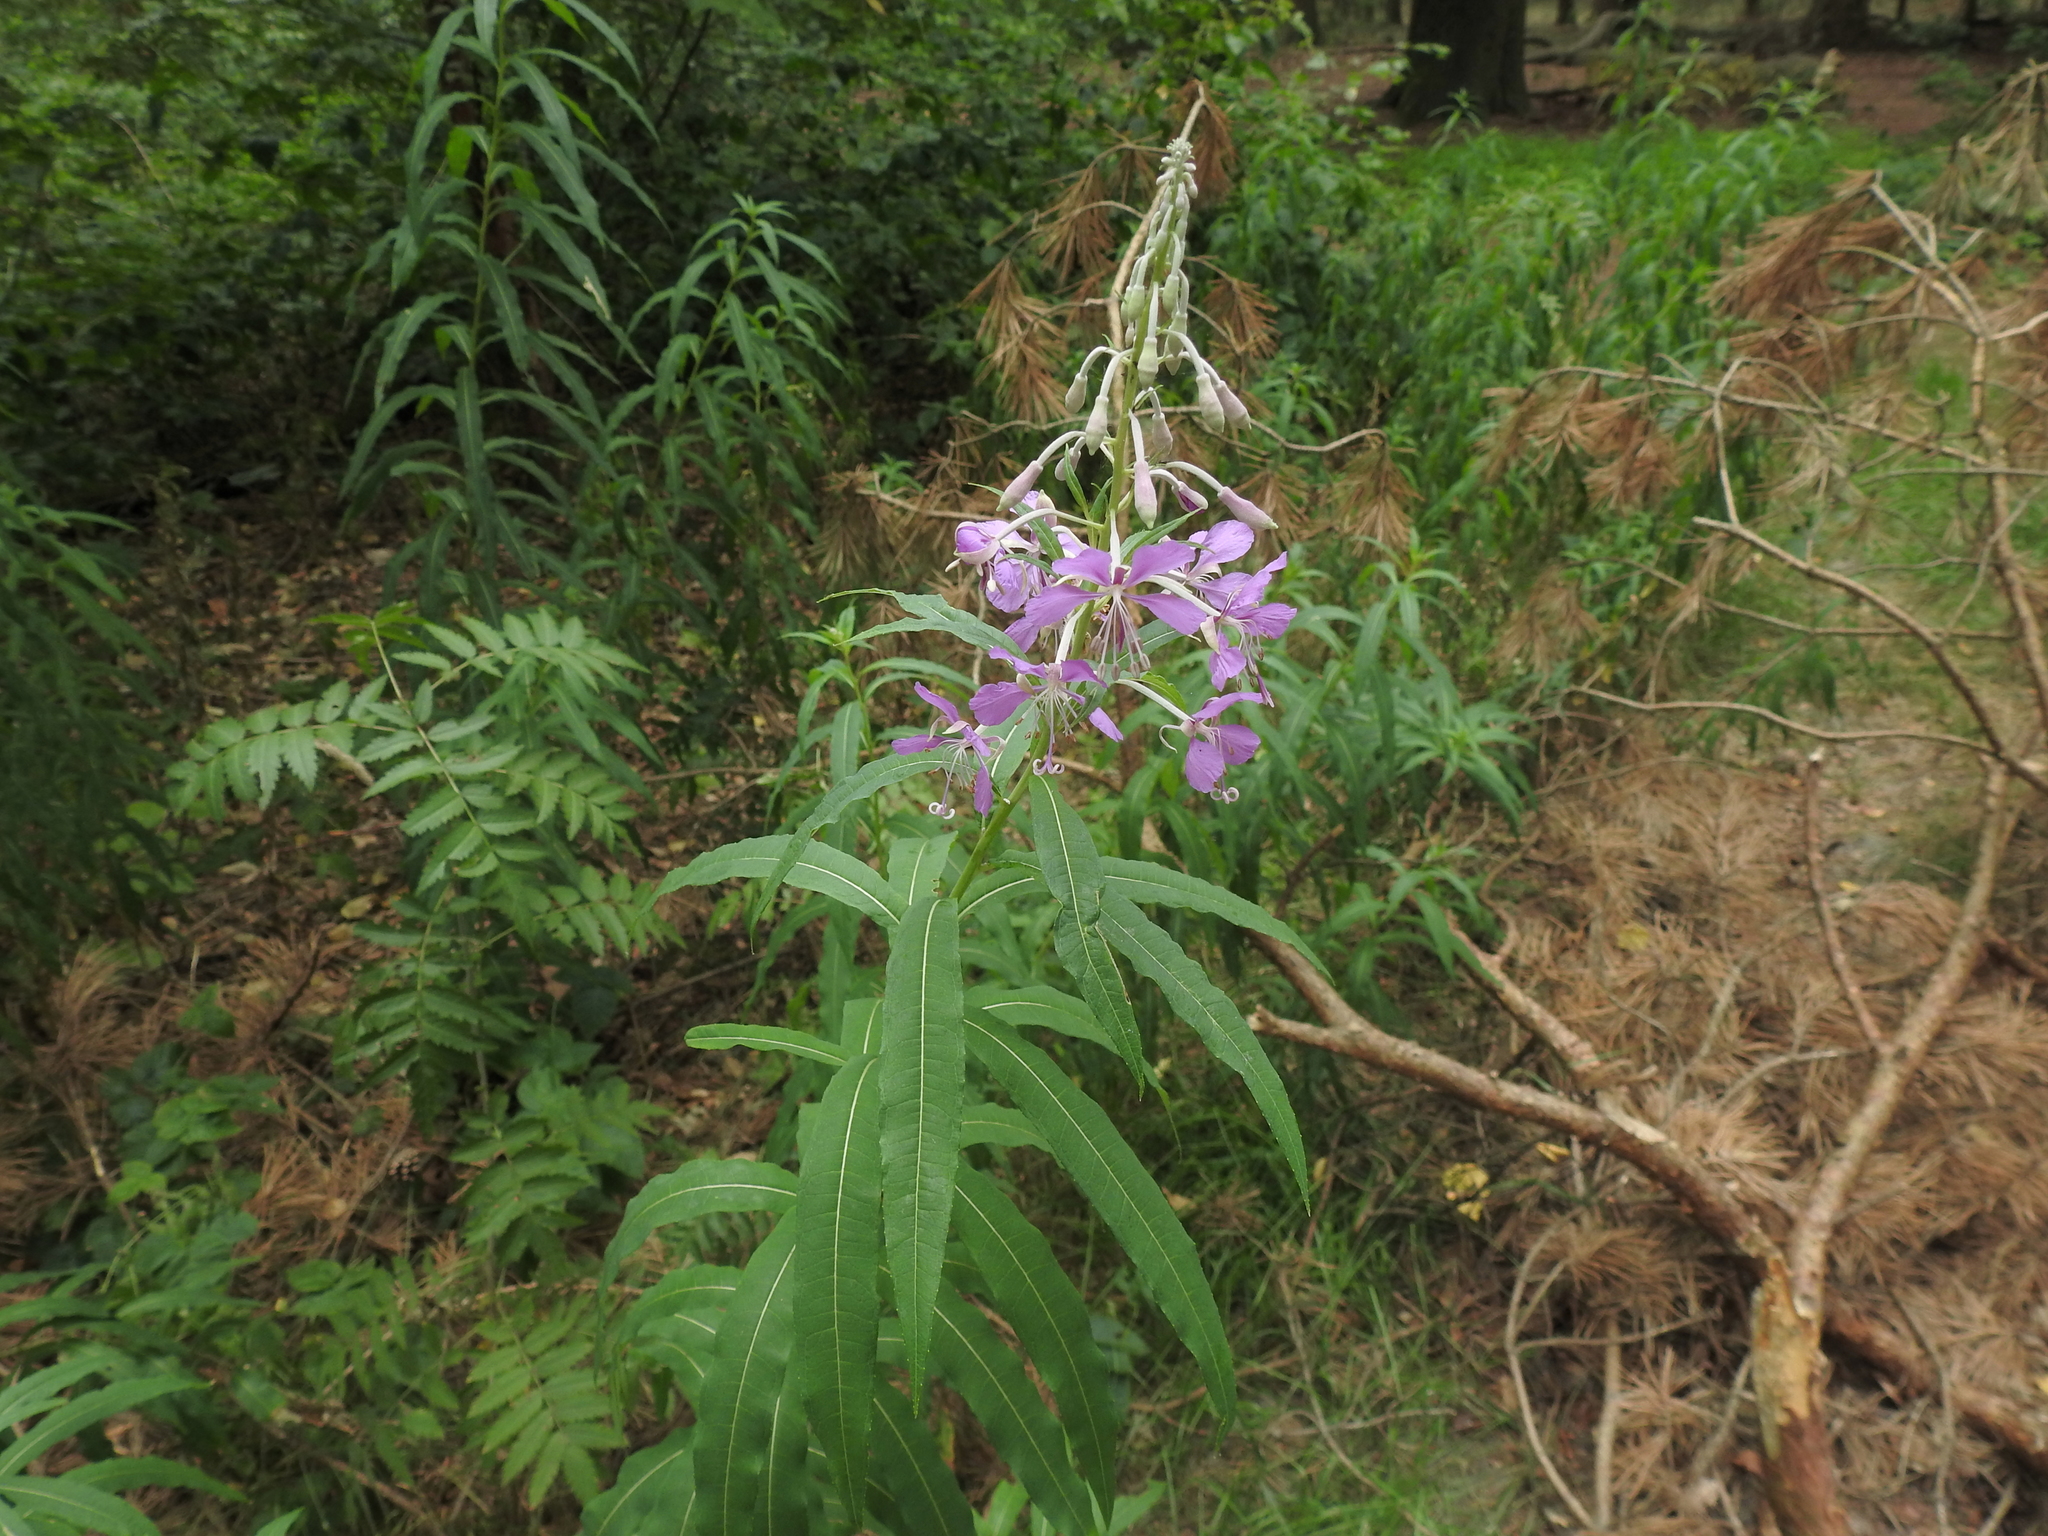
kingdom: Plantae
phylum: Tracheophyta
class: Magnoliopsida
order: Myrtales
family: Onagraceae
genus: Chamaenerion
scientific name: Chamaenerion angustifolium
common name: Fireweed
